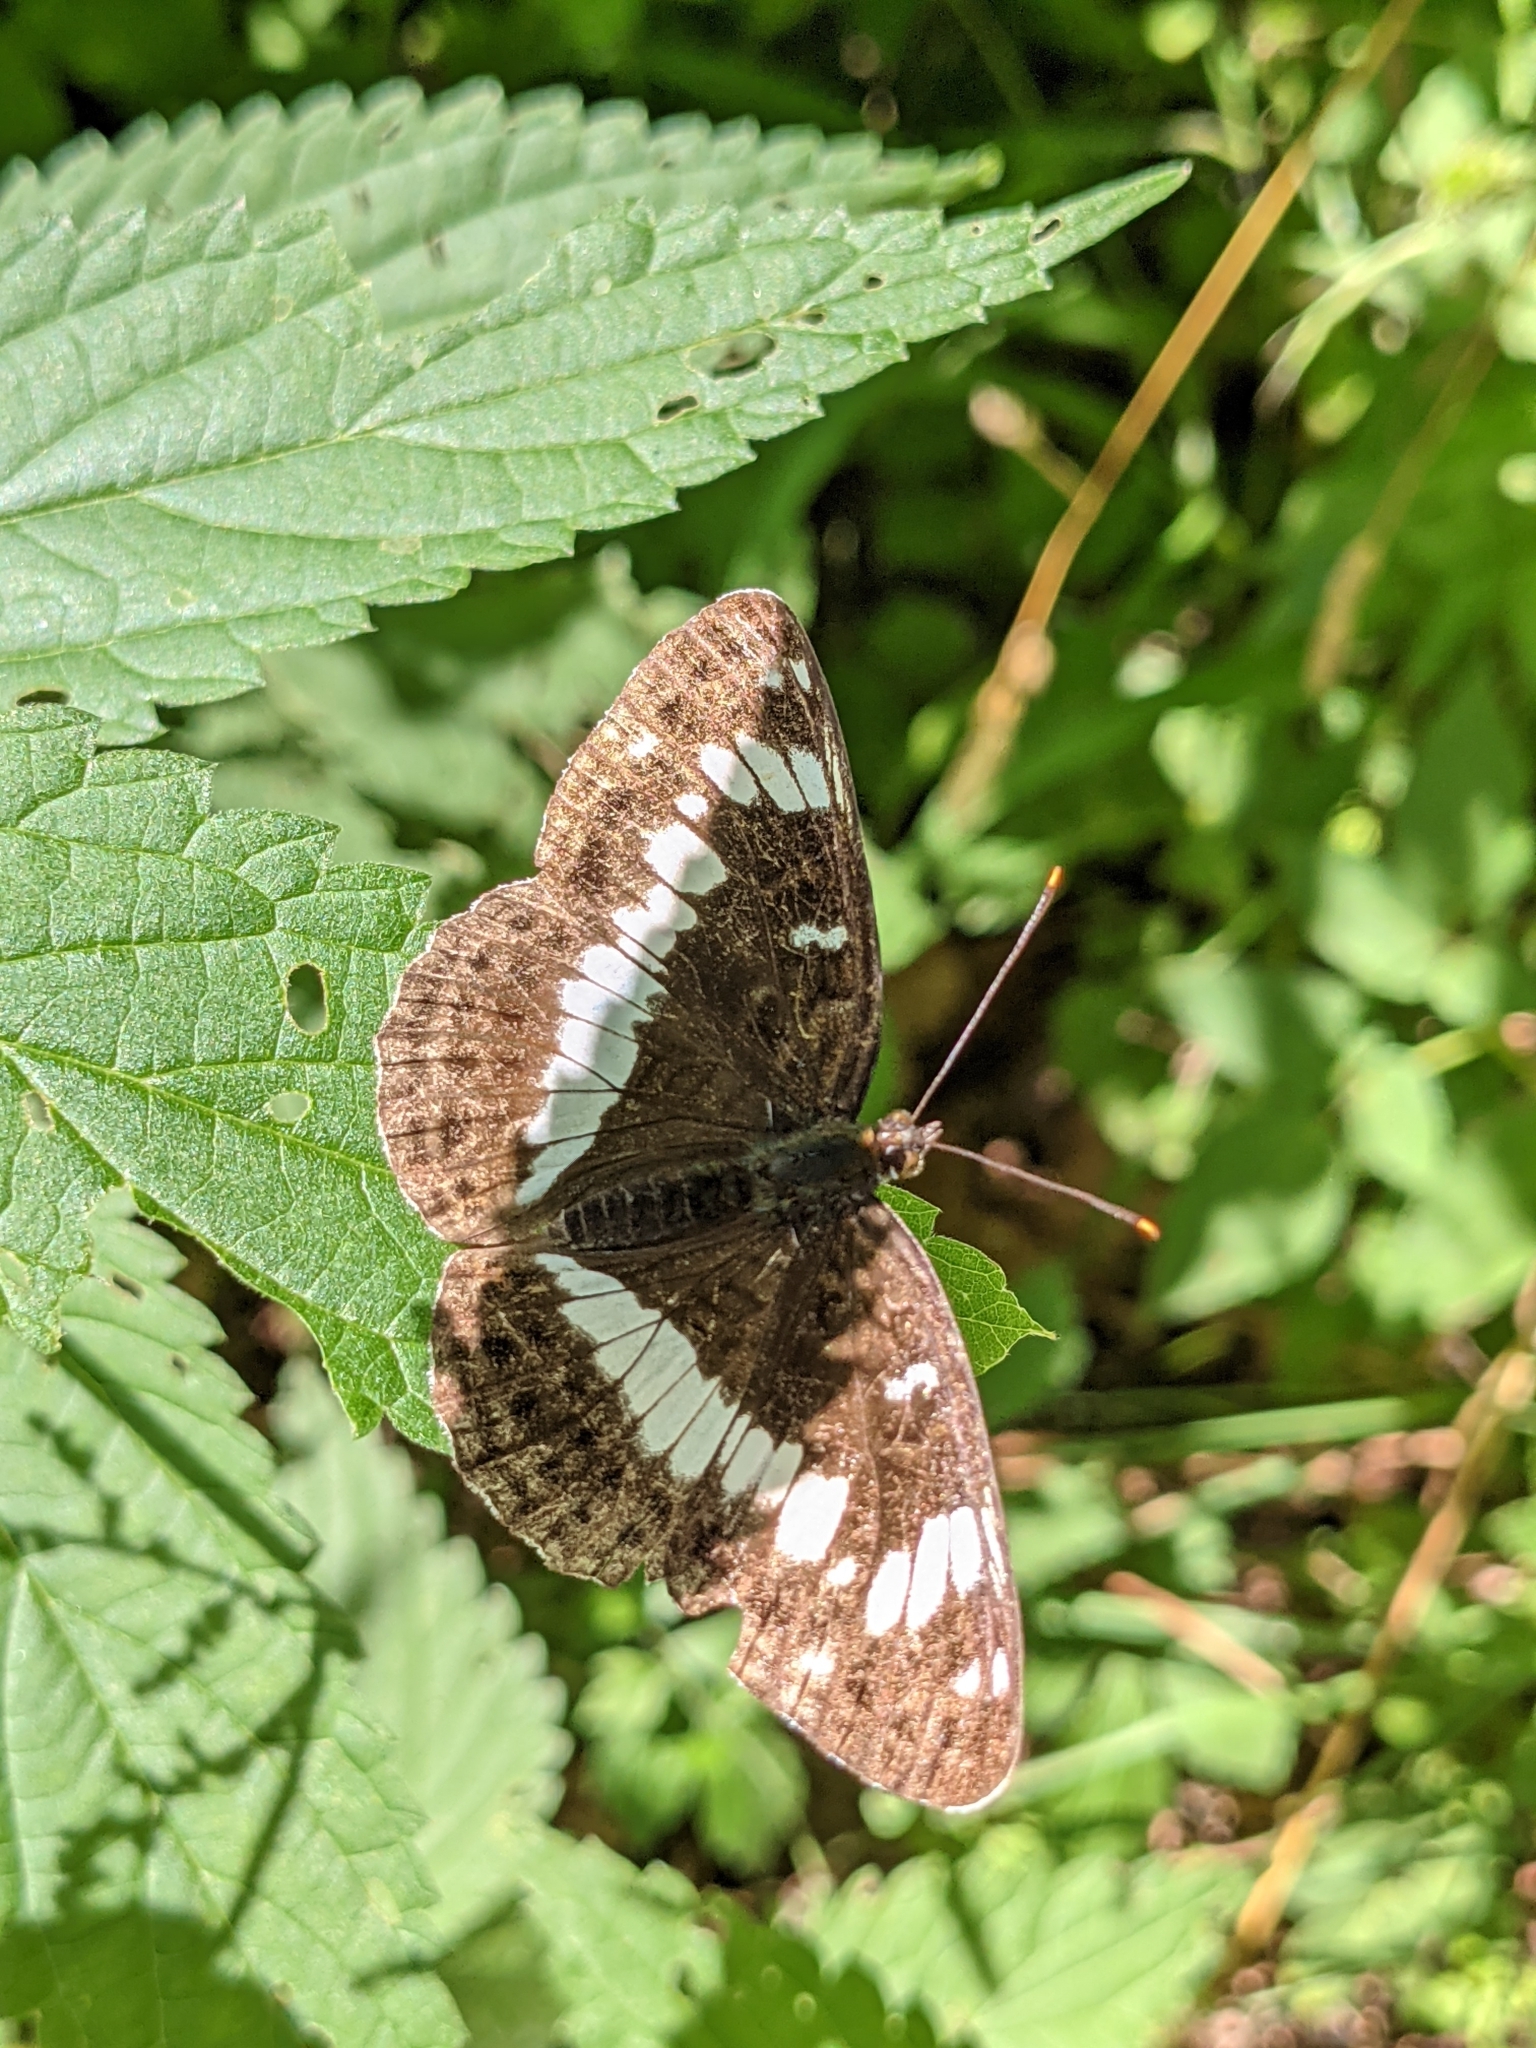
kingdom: Animalia
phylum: Arthropoda
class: Insecta
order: Lepidoptera
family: Nymphalidae
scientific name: Nymphalidae
